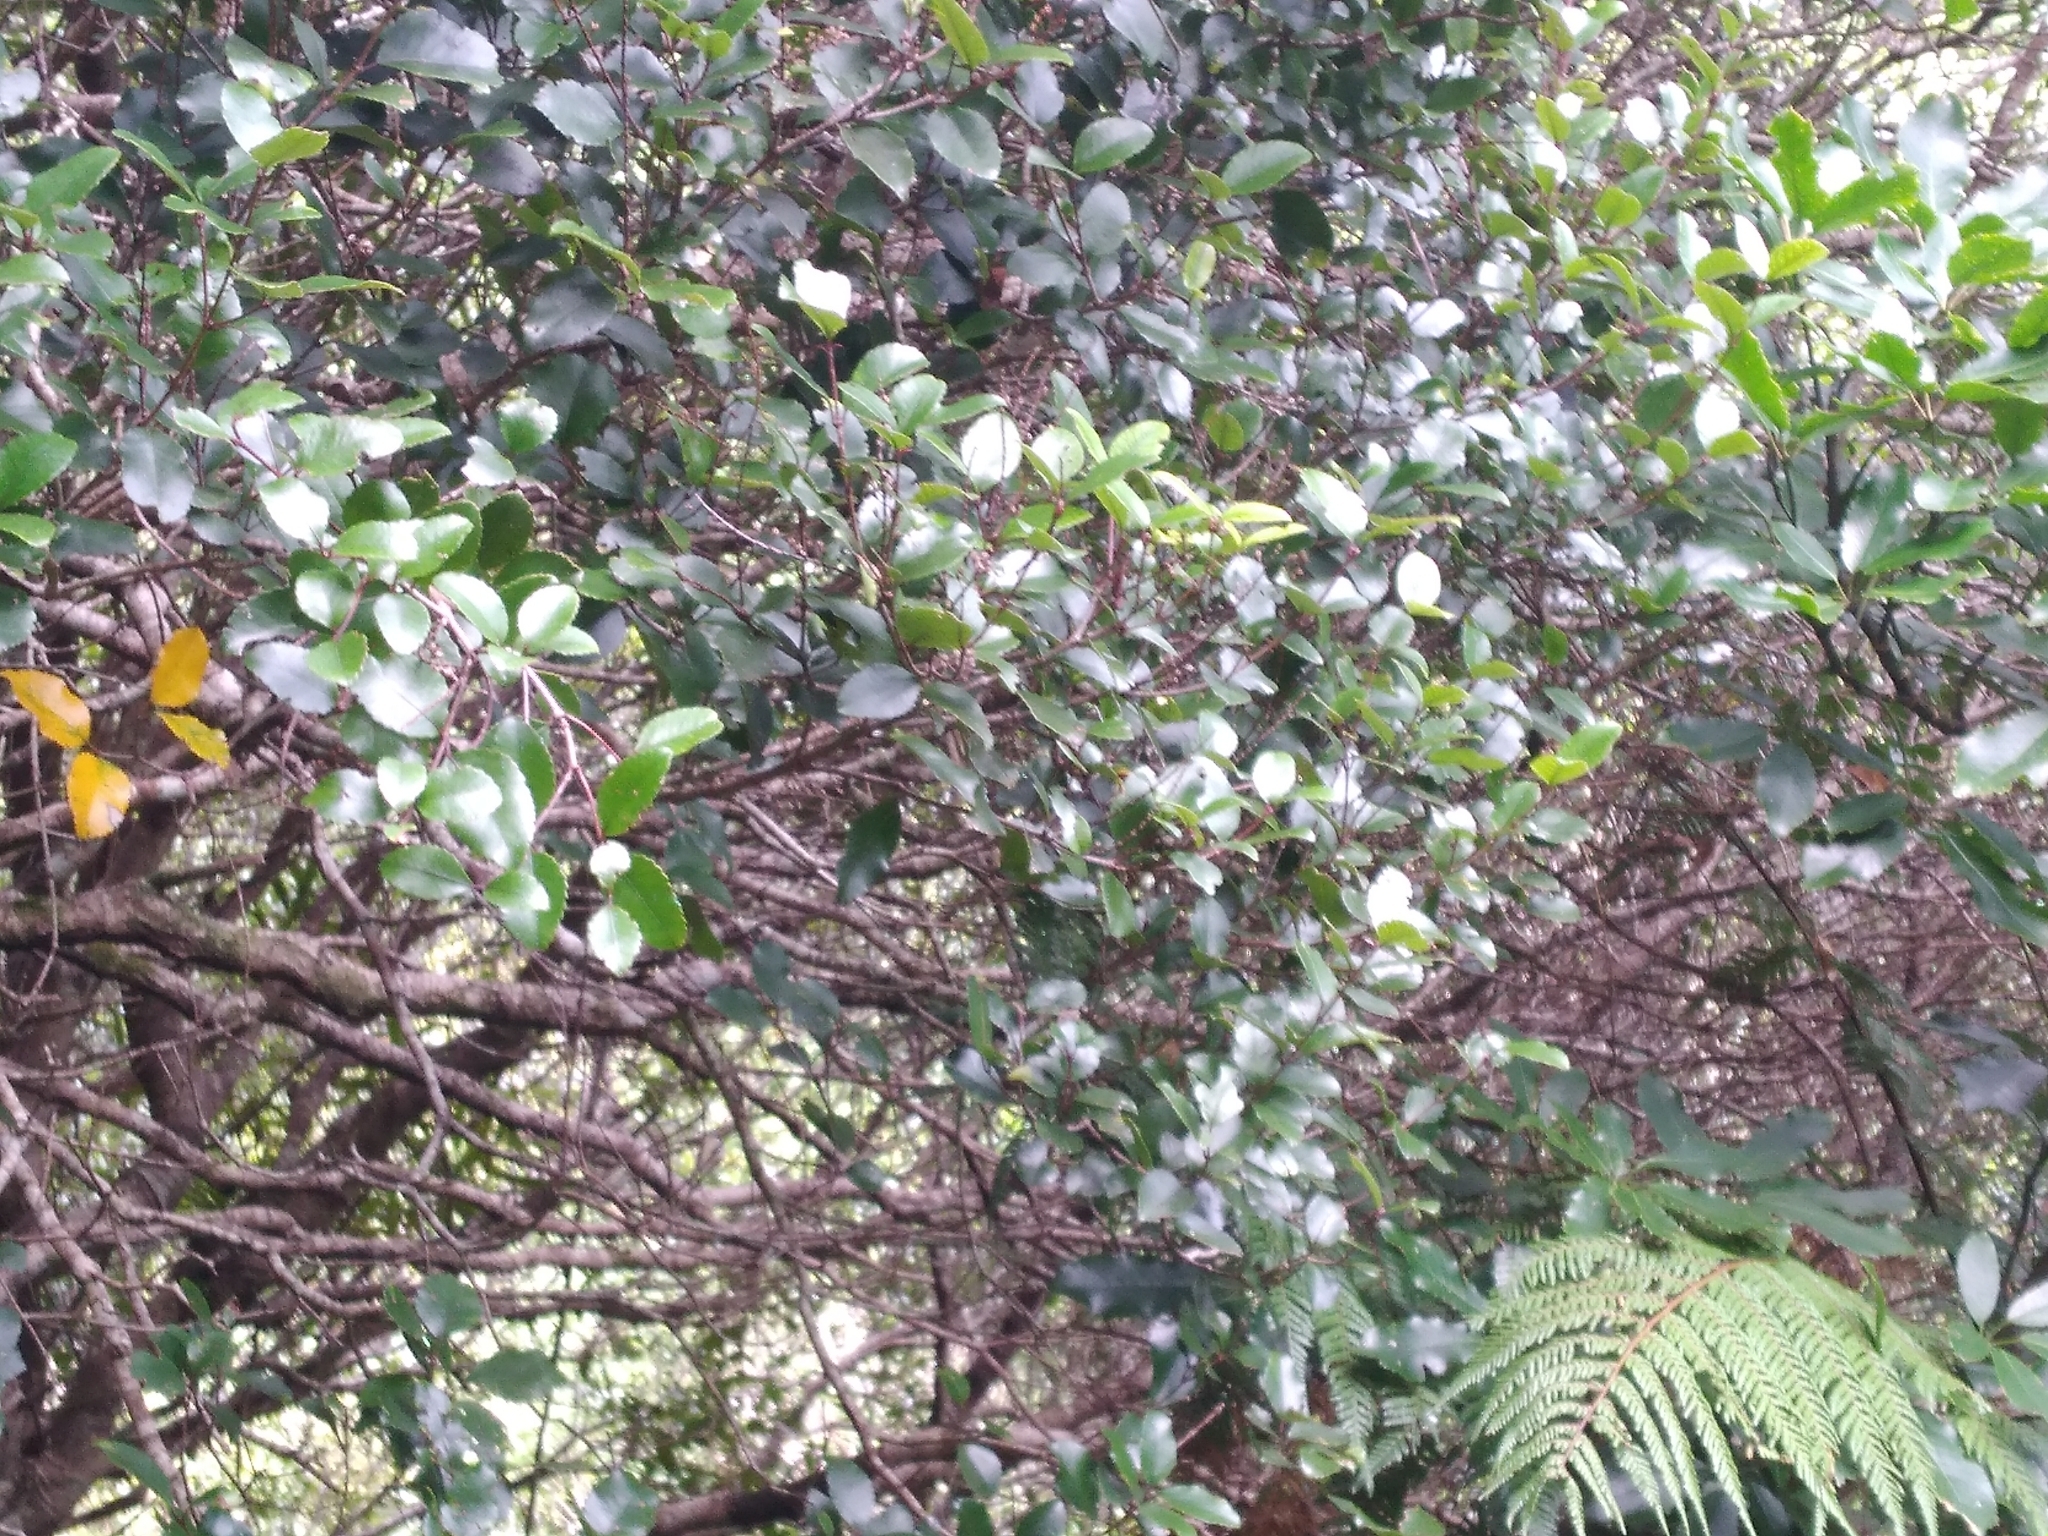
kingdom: Plantae
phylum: Tracheophyta
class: Magnoliopsida
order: Oxalidales
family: Cunoniaceae
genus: Pterophylla
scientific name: Pterophylla racemosa
